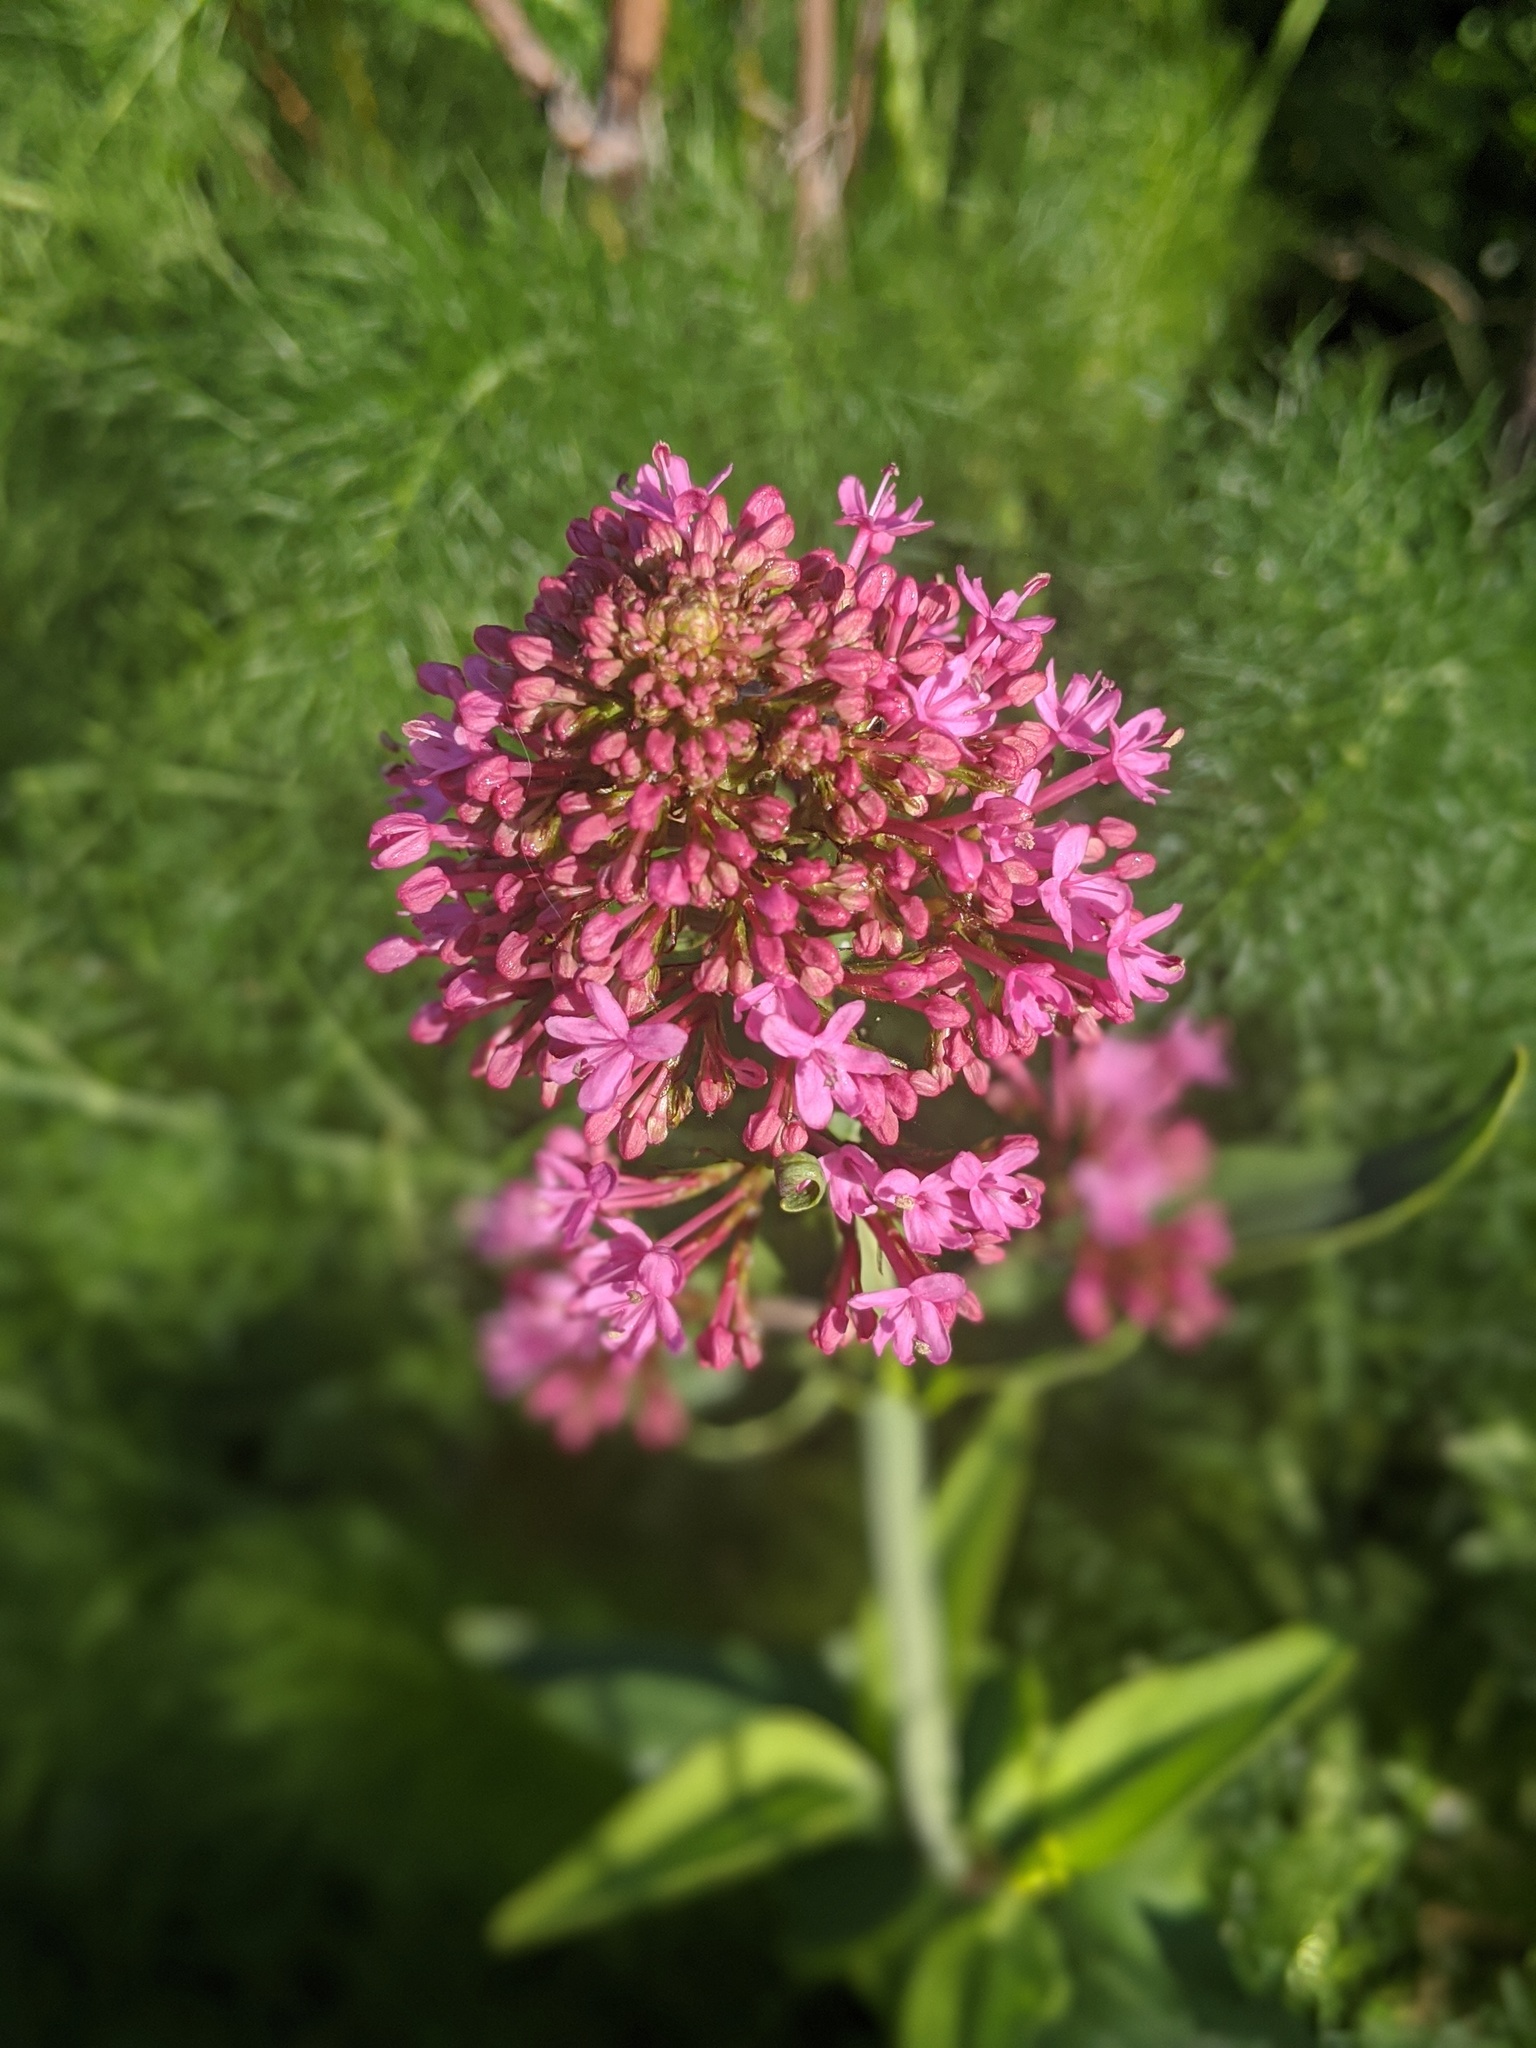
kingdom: Plantae
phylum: Tracheophyta
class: Magnoliopsida
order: Dipsacales
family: Caprifoliaceae
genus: Centranthus
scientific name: Centranthus ruber
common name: Red valerian
